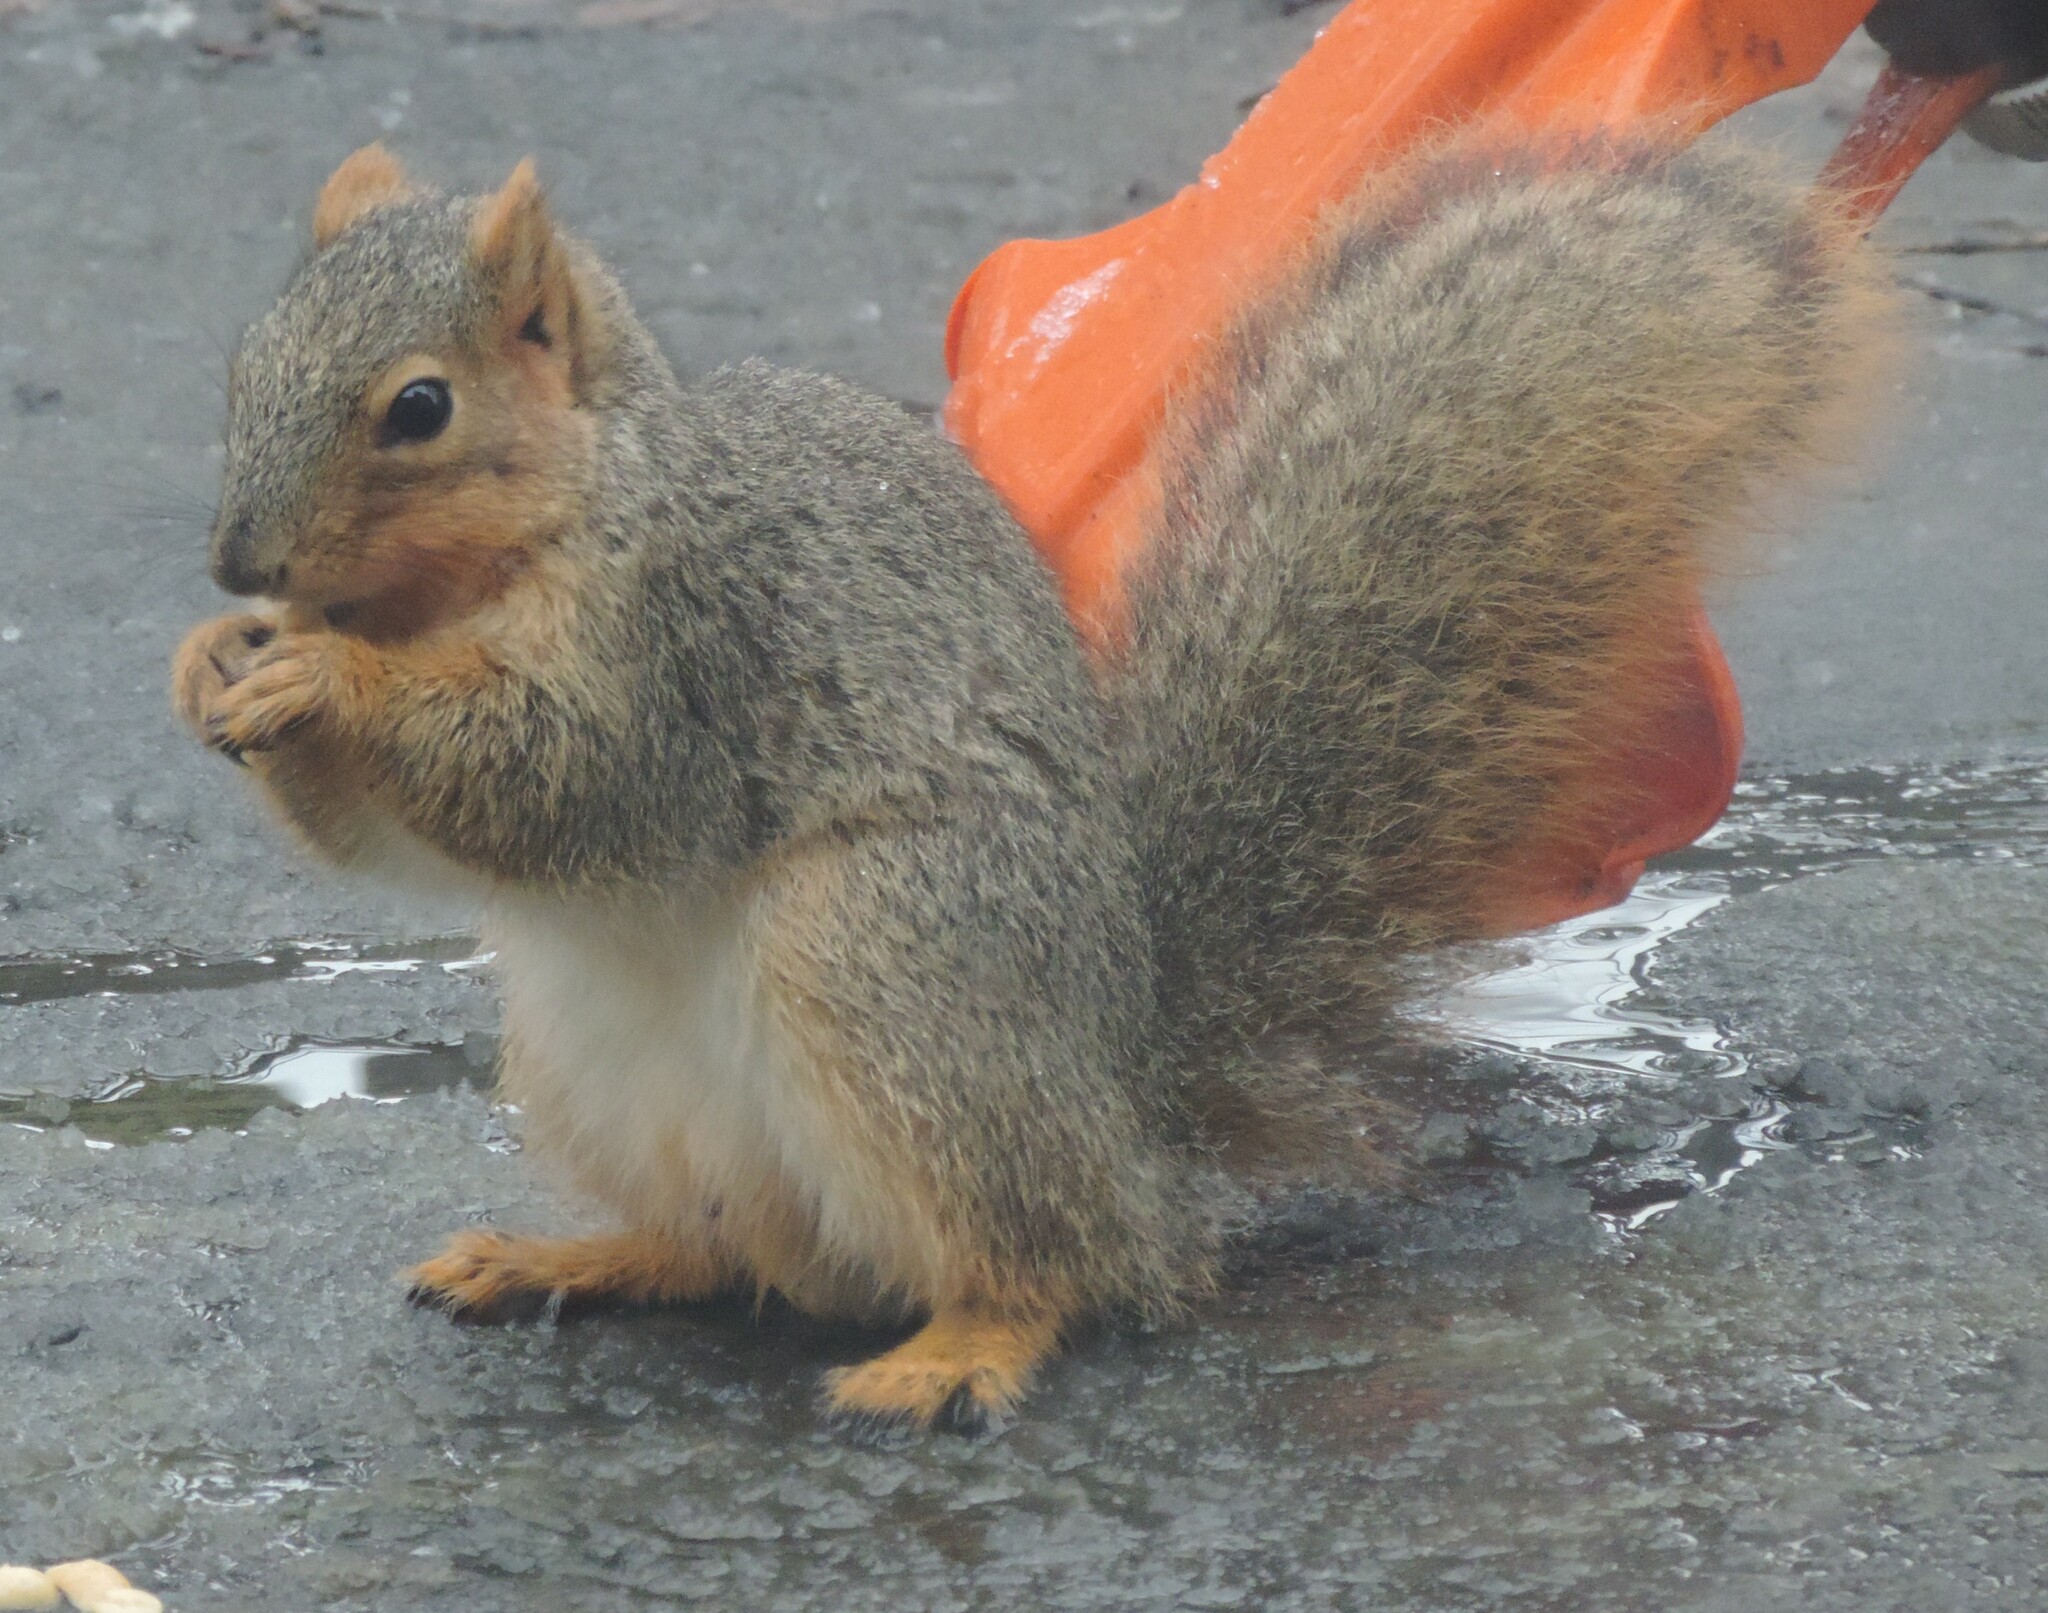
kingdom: Animalia
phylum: Chordata
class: Mammalia
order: Rodentia
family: Sciuridae
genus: Sciurus
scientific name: Sciurus niger
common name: Fox squirrel
